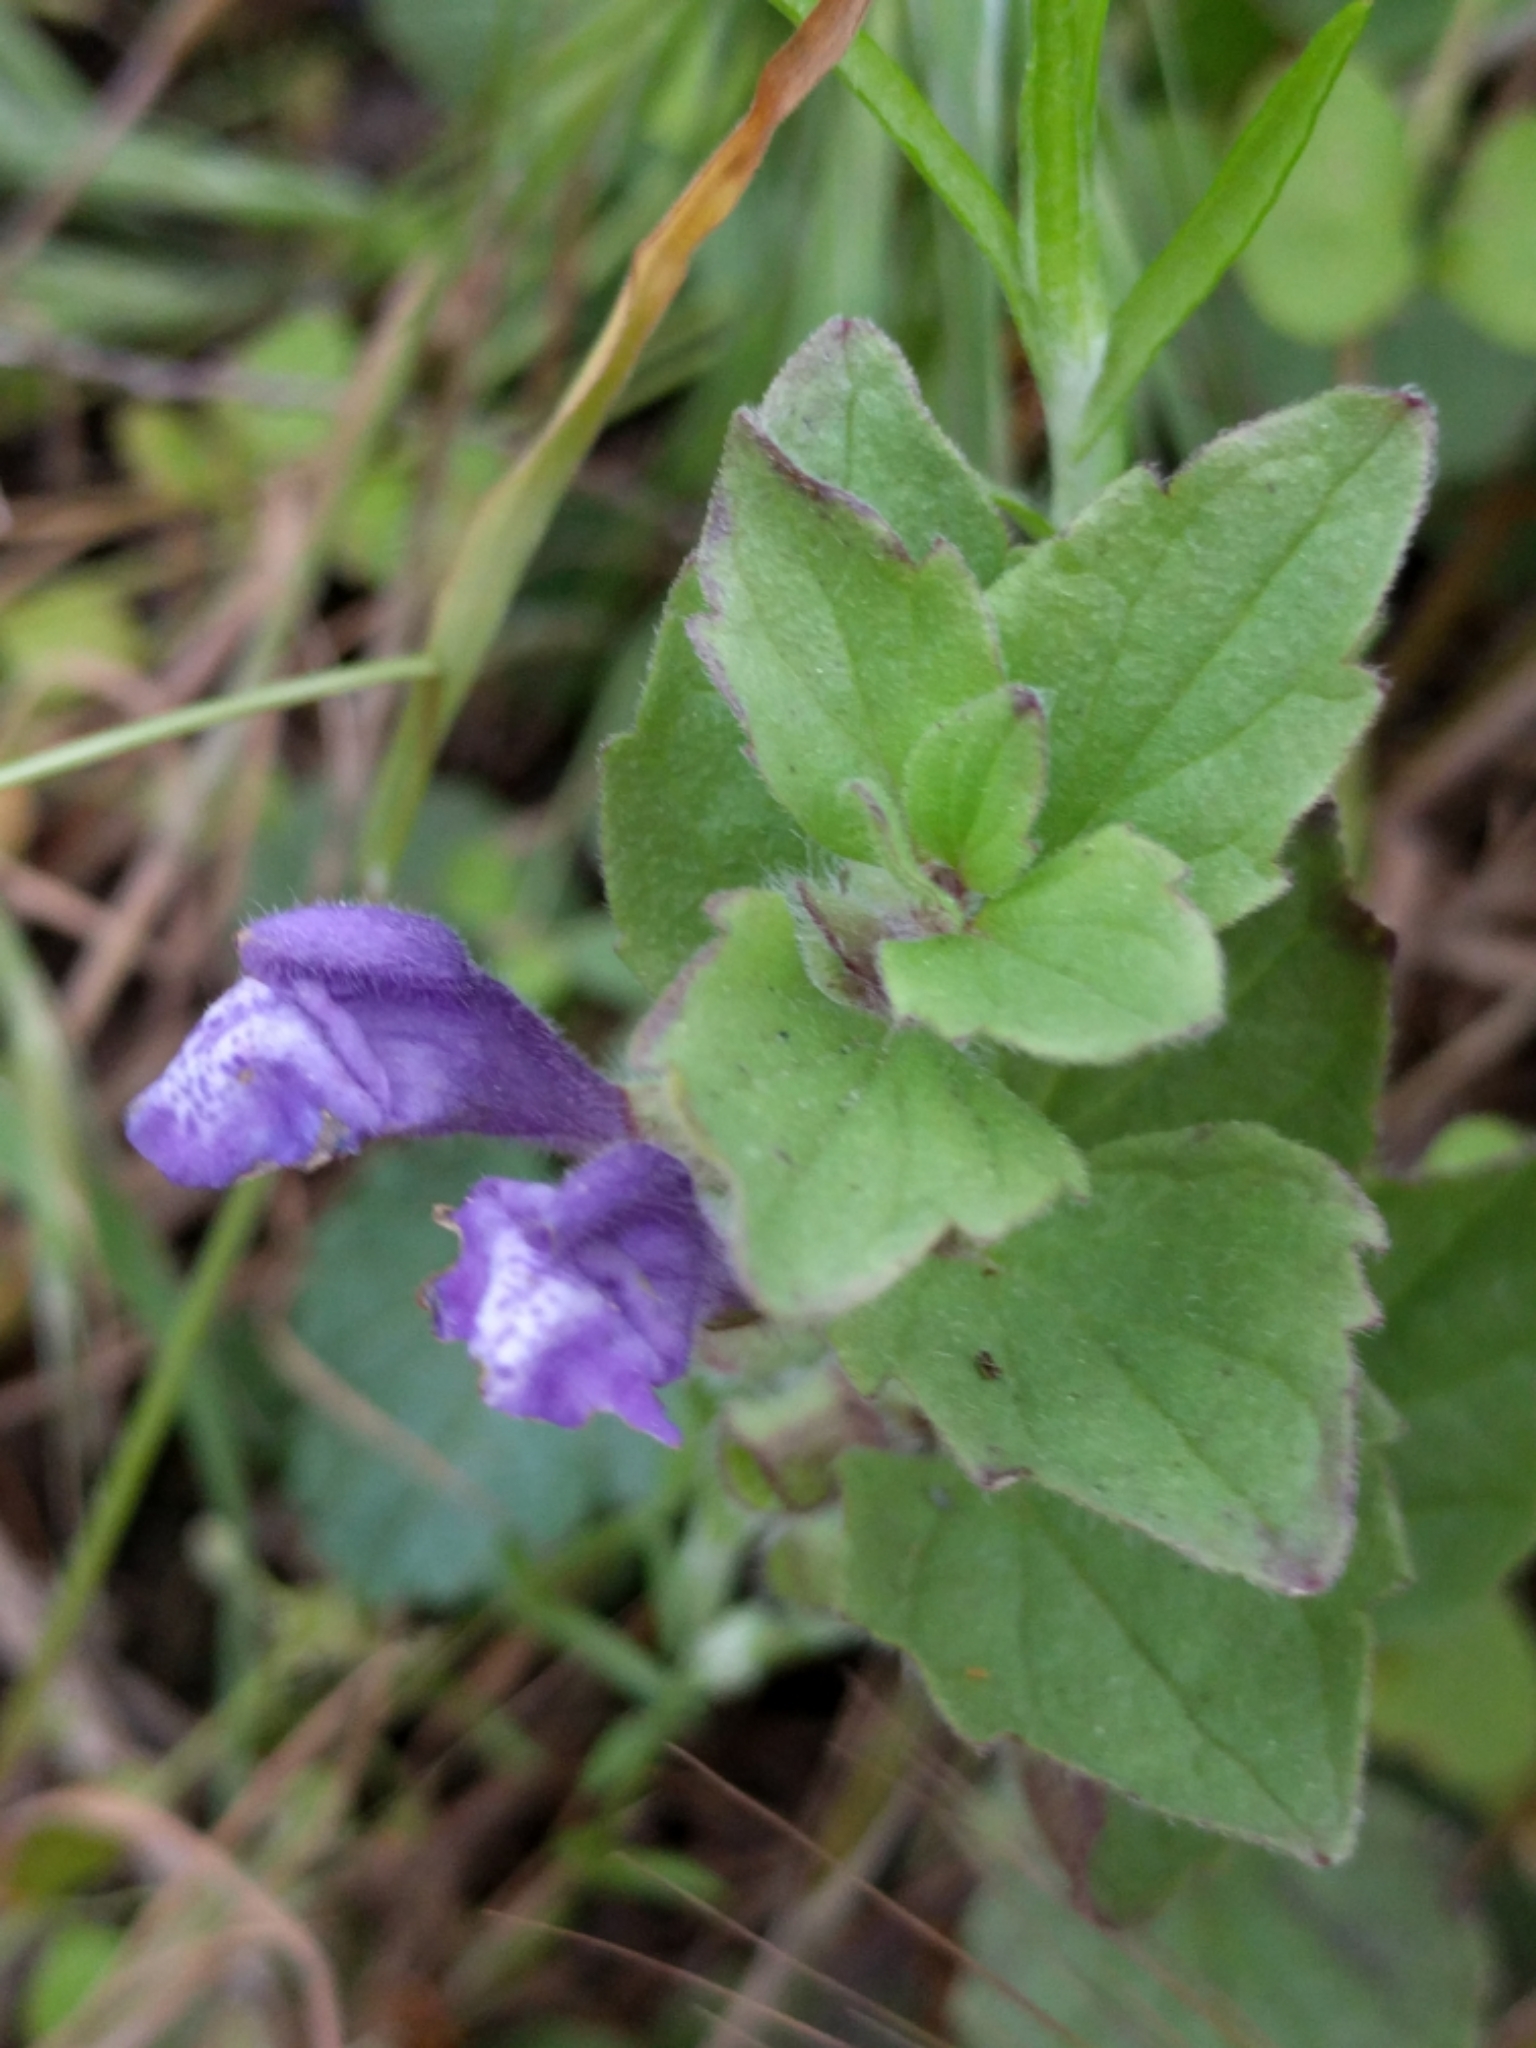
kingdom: Plantae
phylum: Tracheophyta
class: Magnoliopsida
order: Lamiales
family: Lamiaceae
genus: Scutellaria
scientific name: Scutellaria tuberosa
